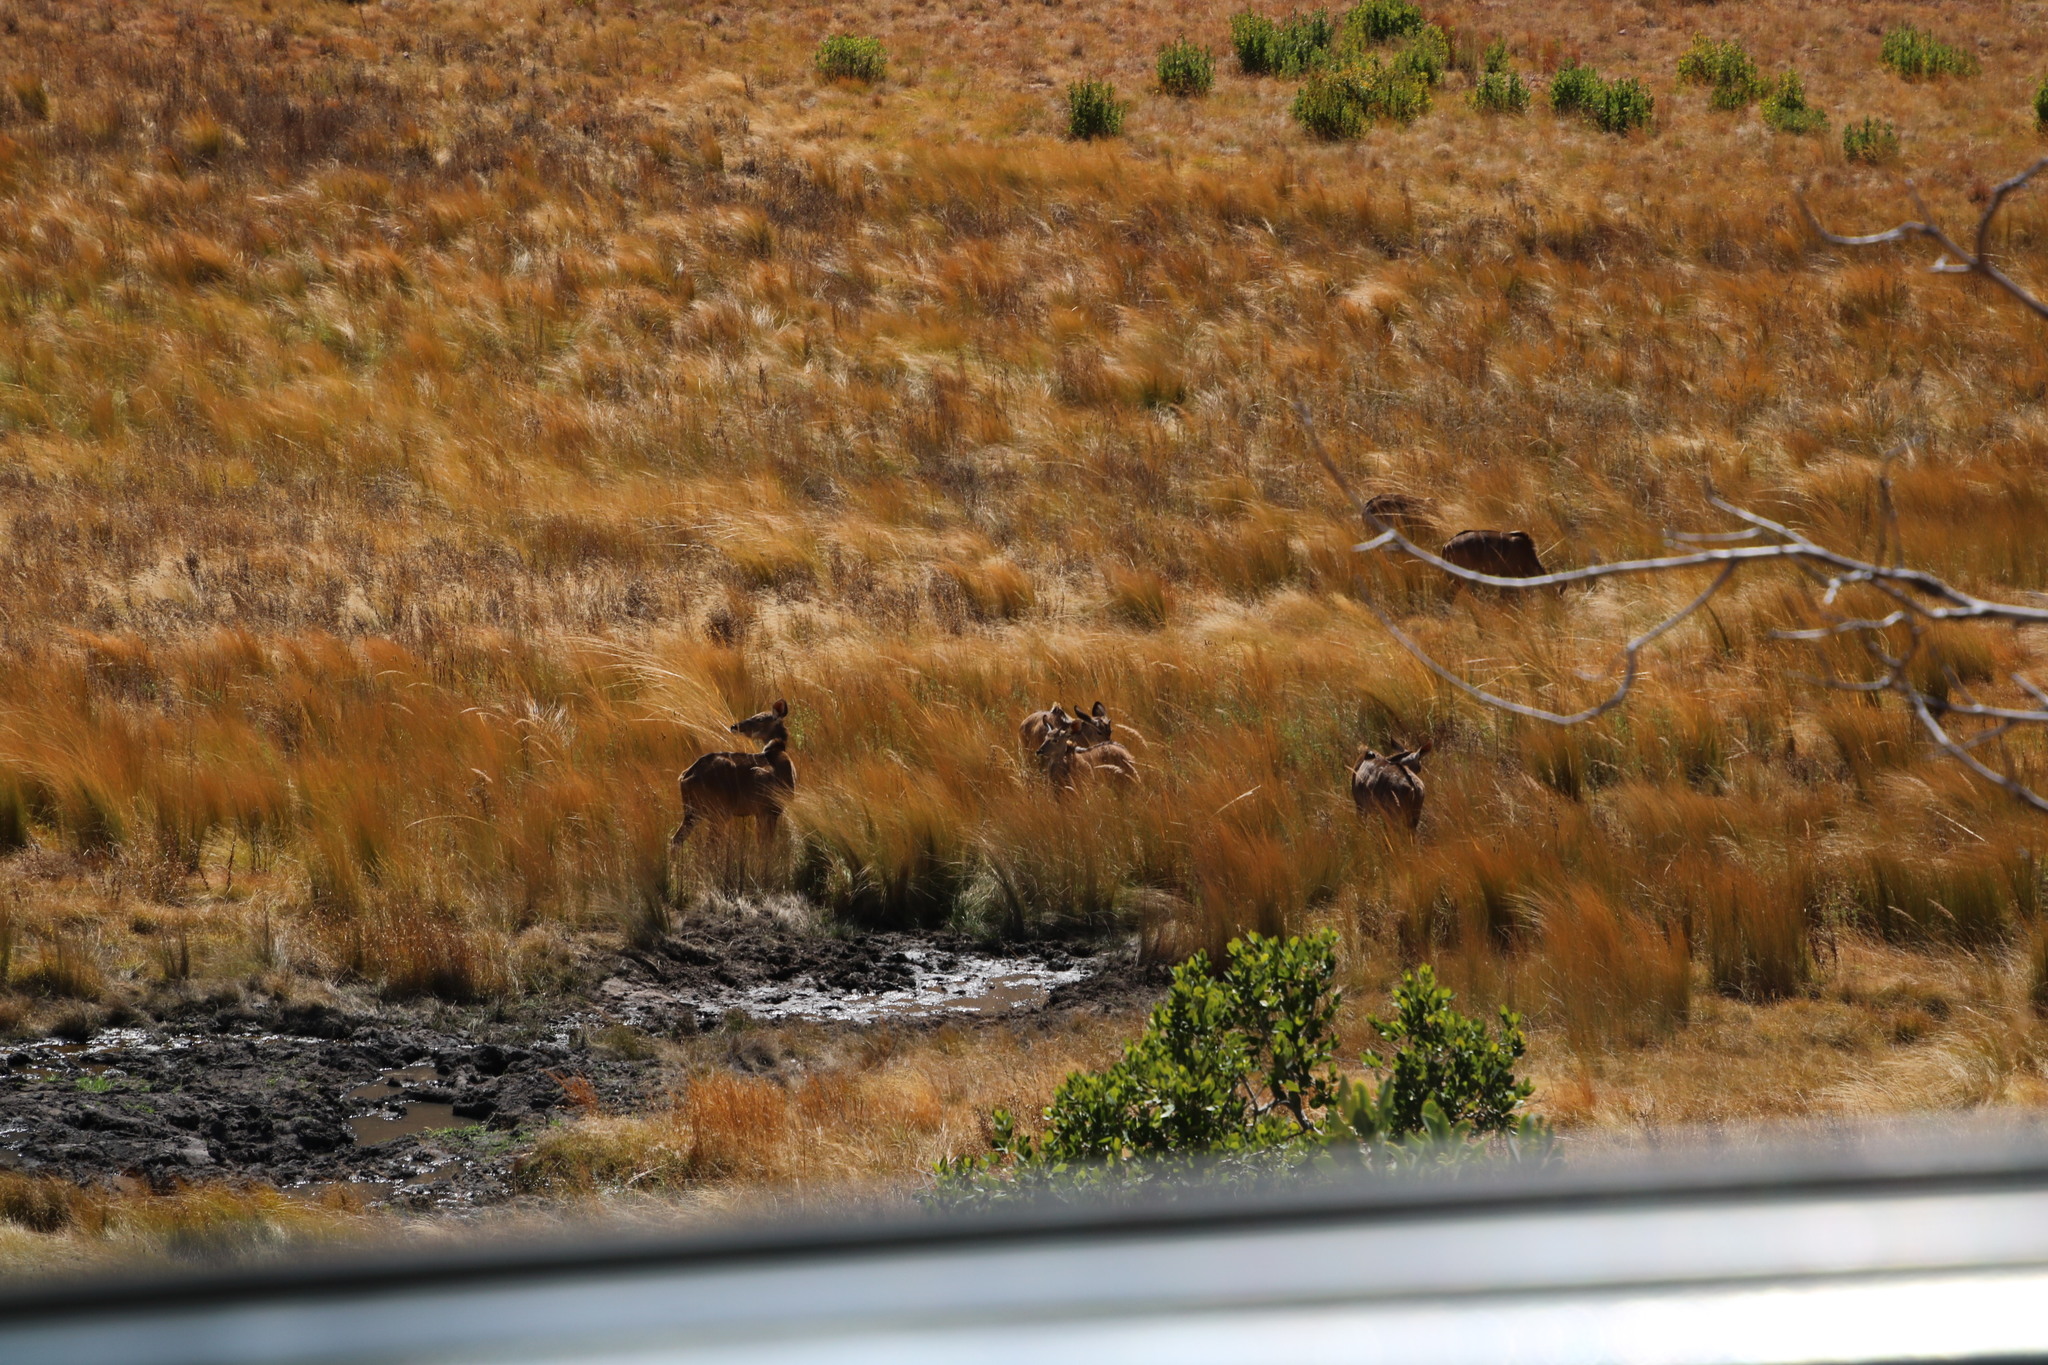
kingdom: Animalia
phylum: Chordata
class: Mammalia
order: Artiodactyla
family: Bovidae
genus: Tragelaphus
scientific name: Tragelaphus strepsiceros
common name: Greater kudu
